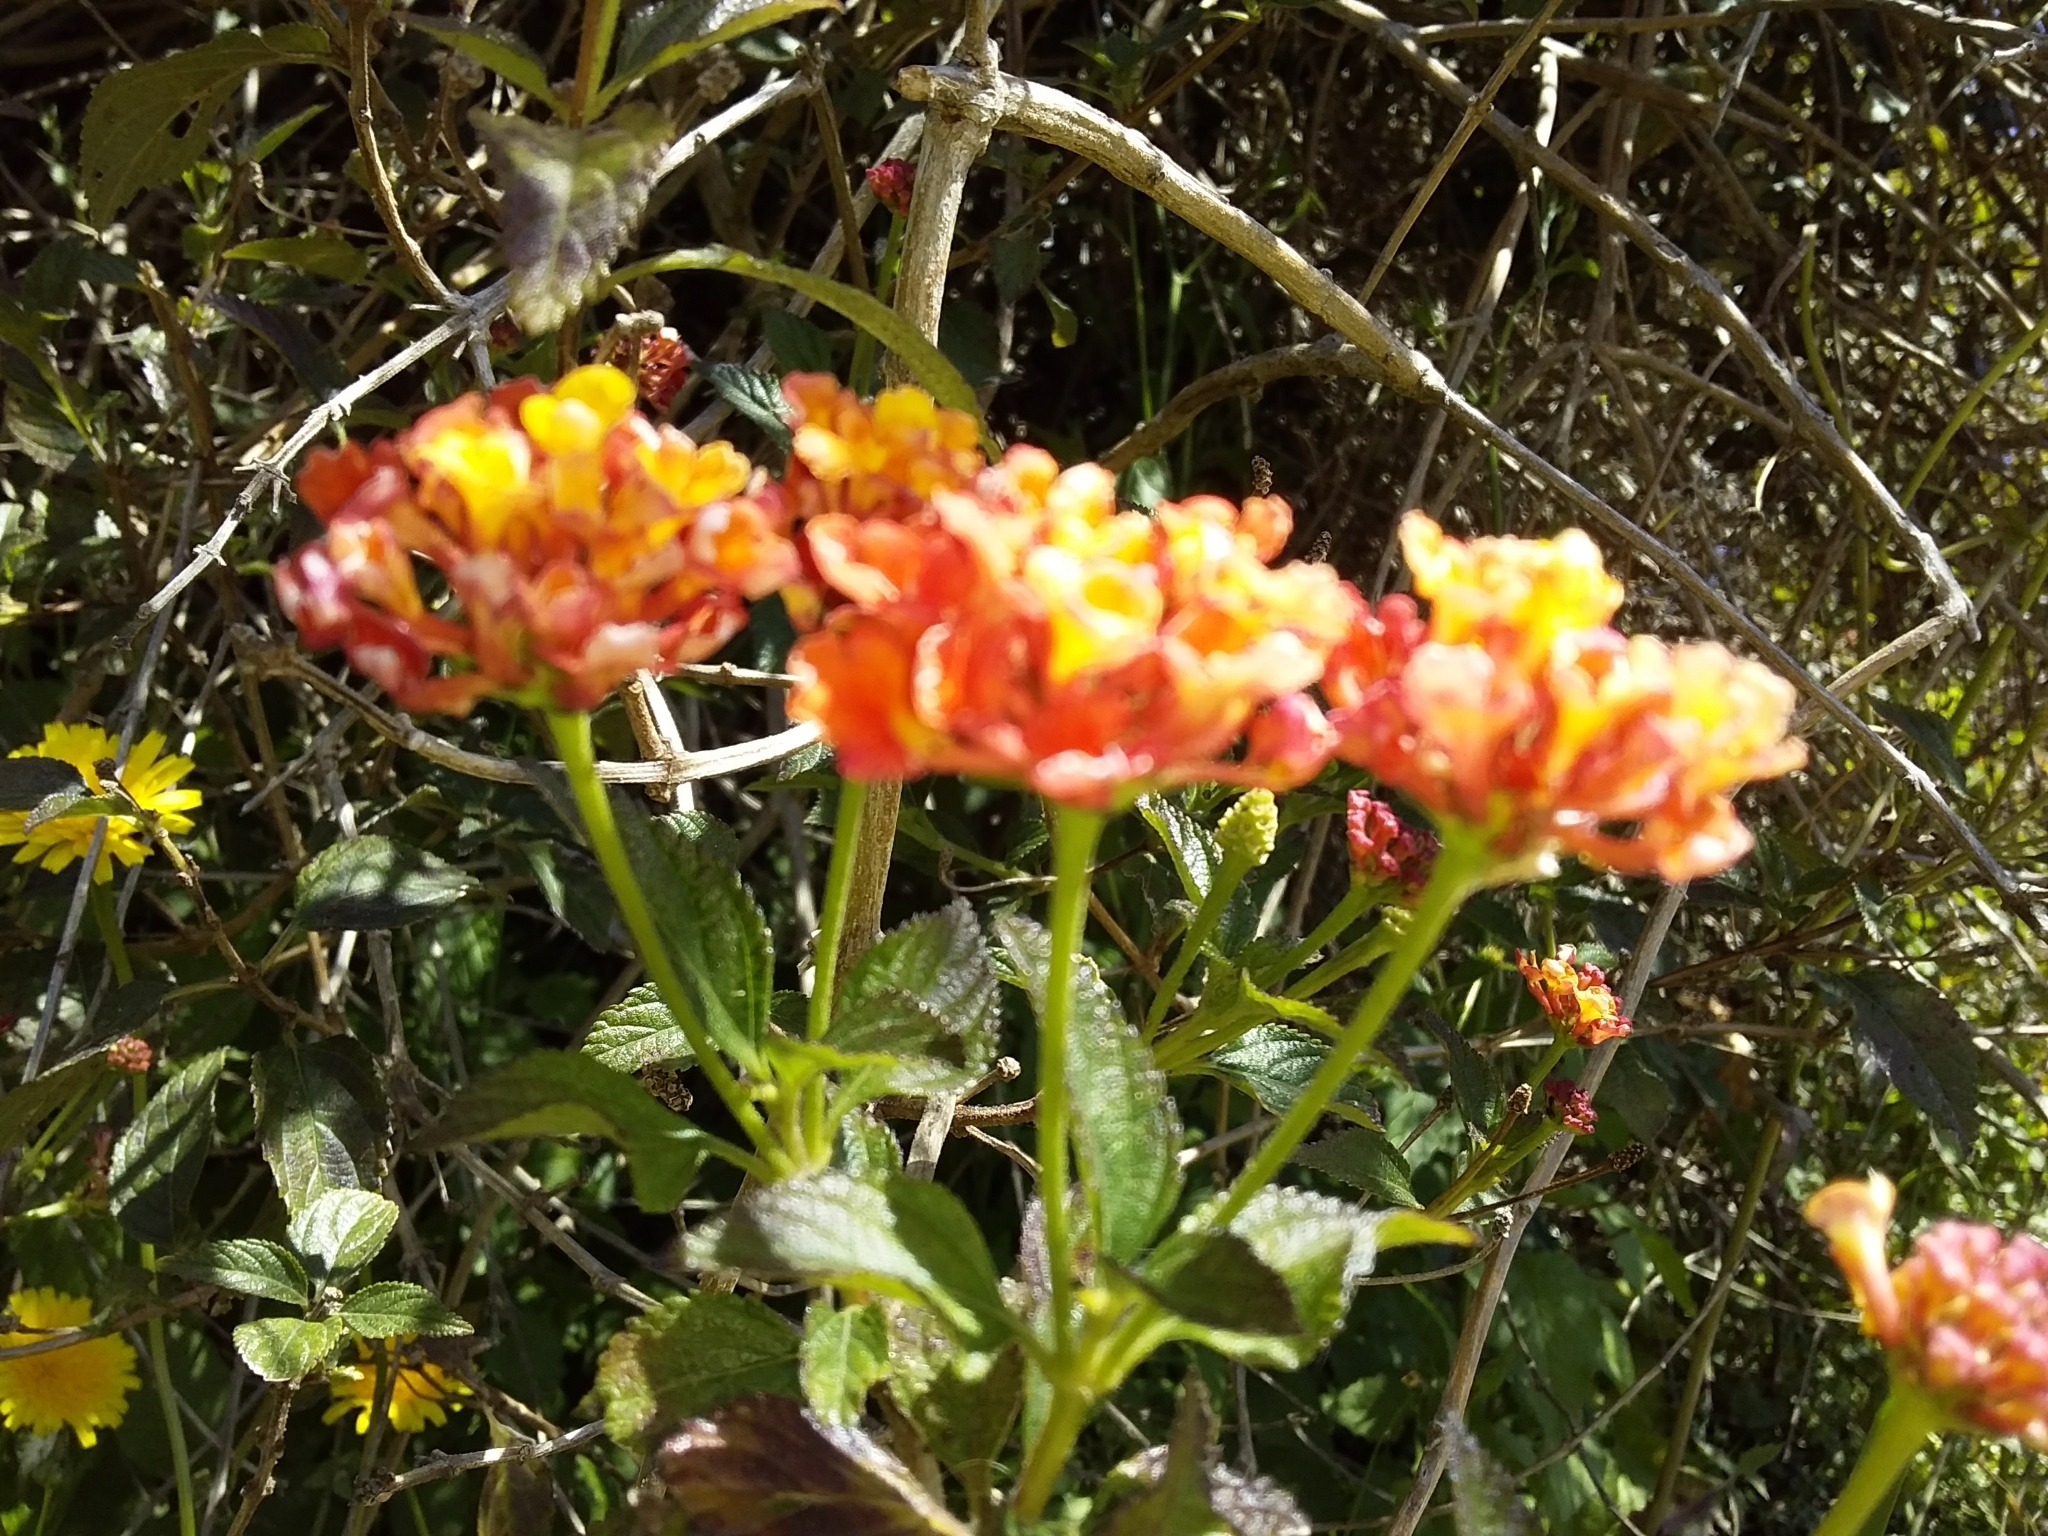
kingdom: Plantae
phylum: Tracheophyta
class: Magnoliopsida
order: Lamiales
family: Verbenaceae
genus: Lantana
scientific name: Lantana camara
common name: Lantana
